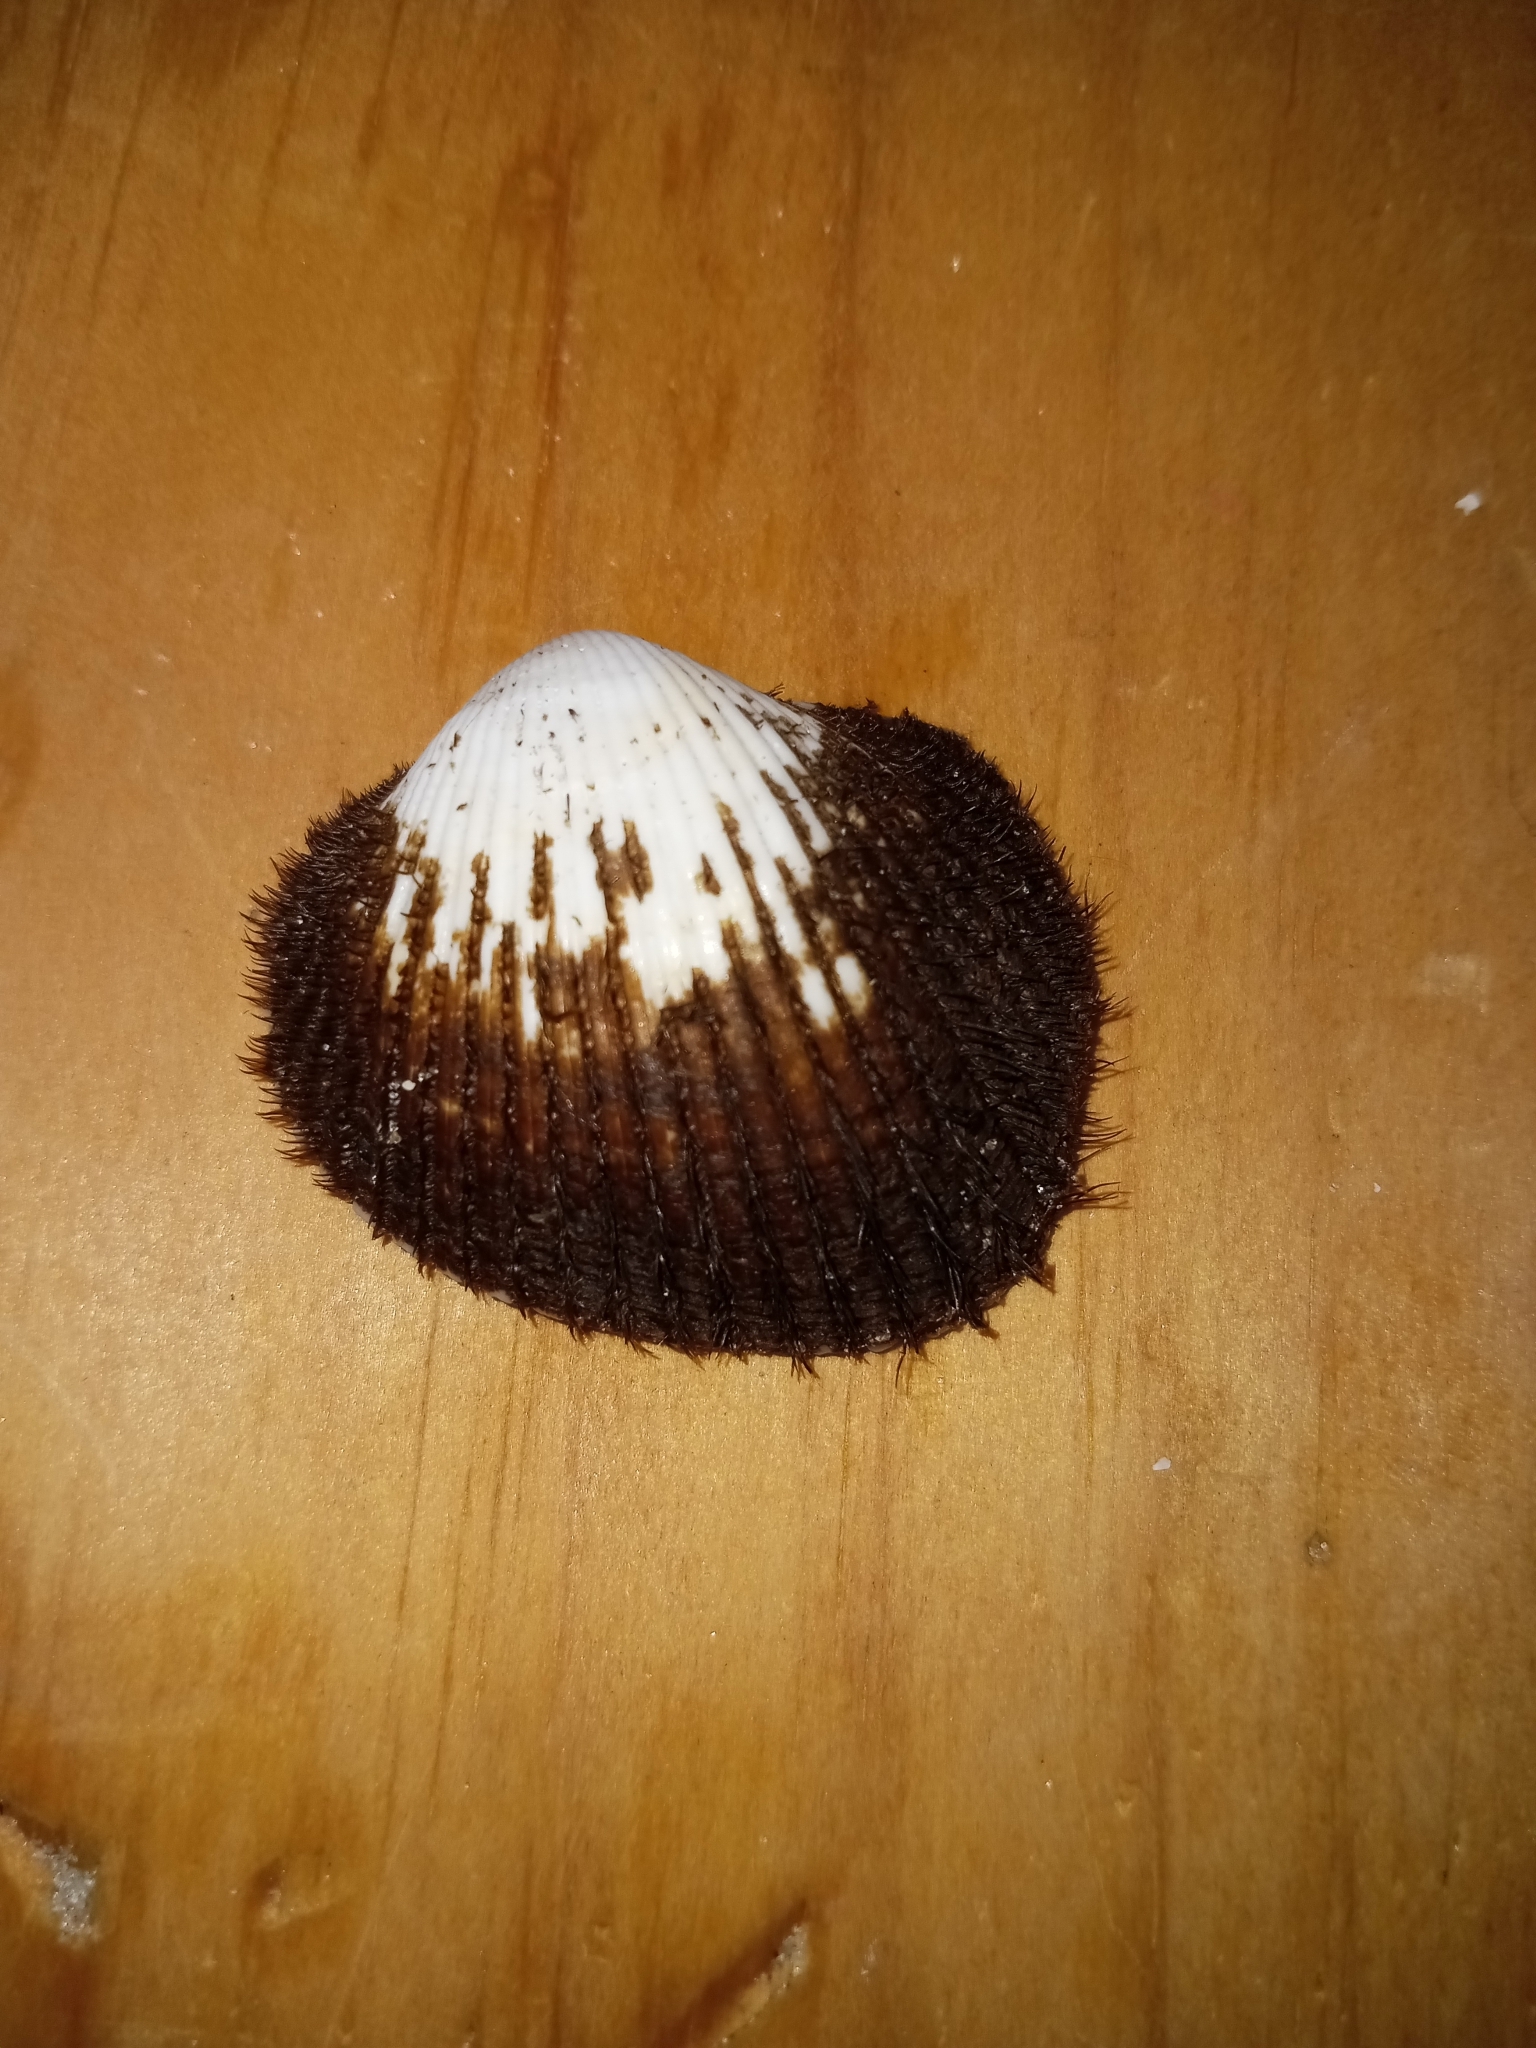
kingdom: Animalia
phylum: Mollusca
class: Bivalvia
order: Arcida
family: Arcidae
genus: Lunarca
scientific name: Lunarca ovalis
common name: Blood ark
